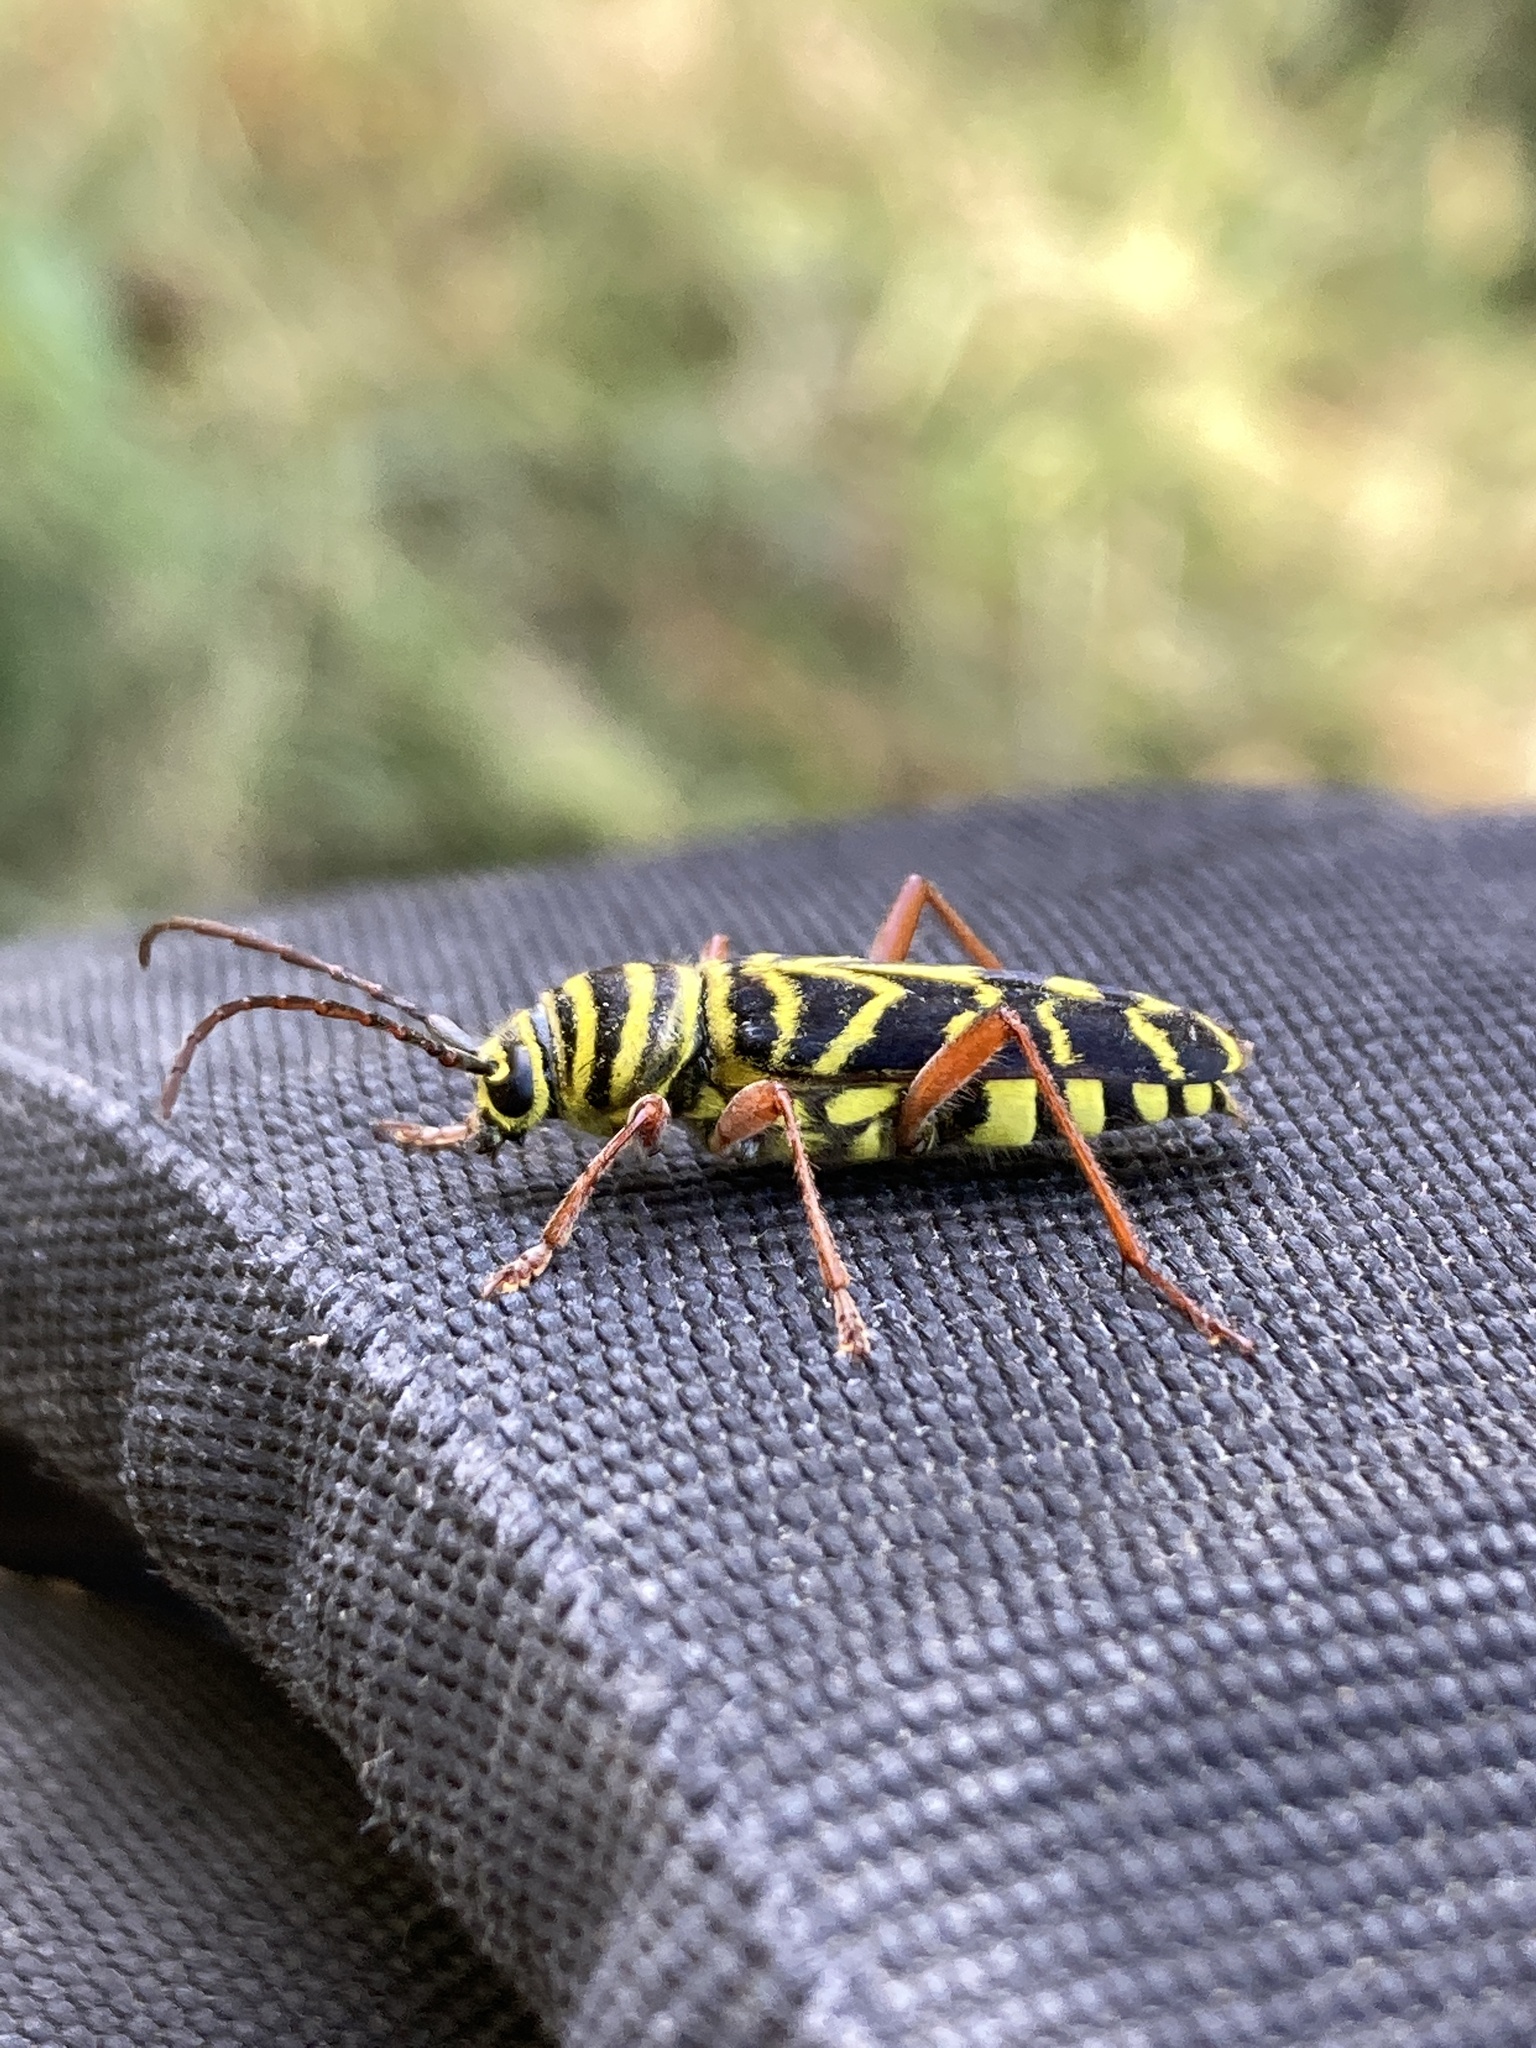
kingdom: Animalia
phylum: Arthropoda
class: Insecta
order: Coleoptera
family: Cerambycidae
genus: Megacyllene
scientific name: Megacyllene robiniae
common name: Locust borer
